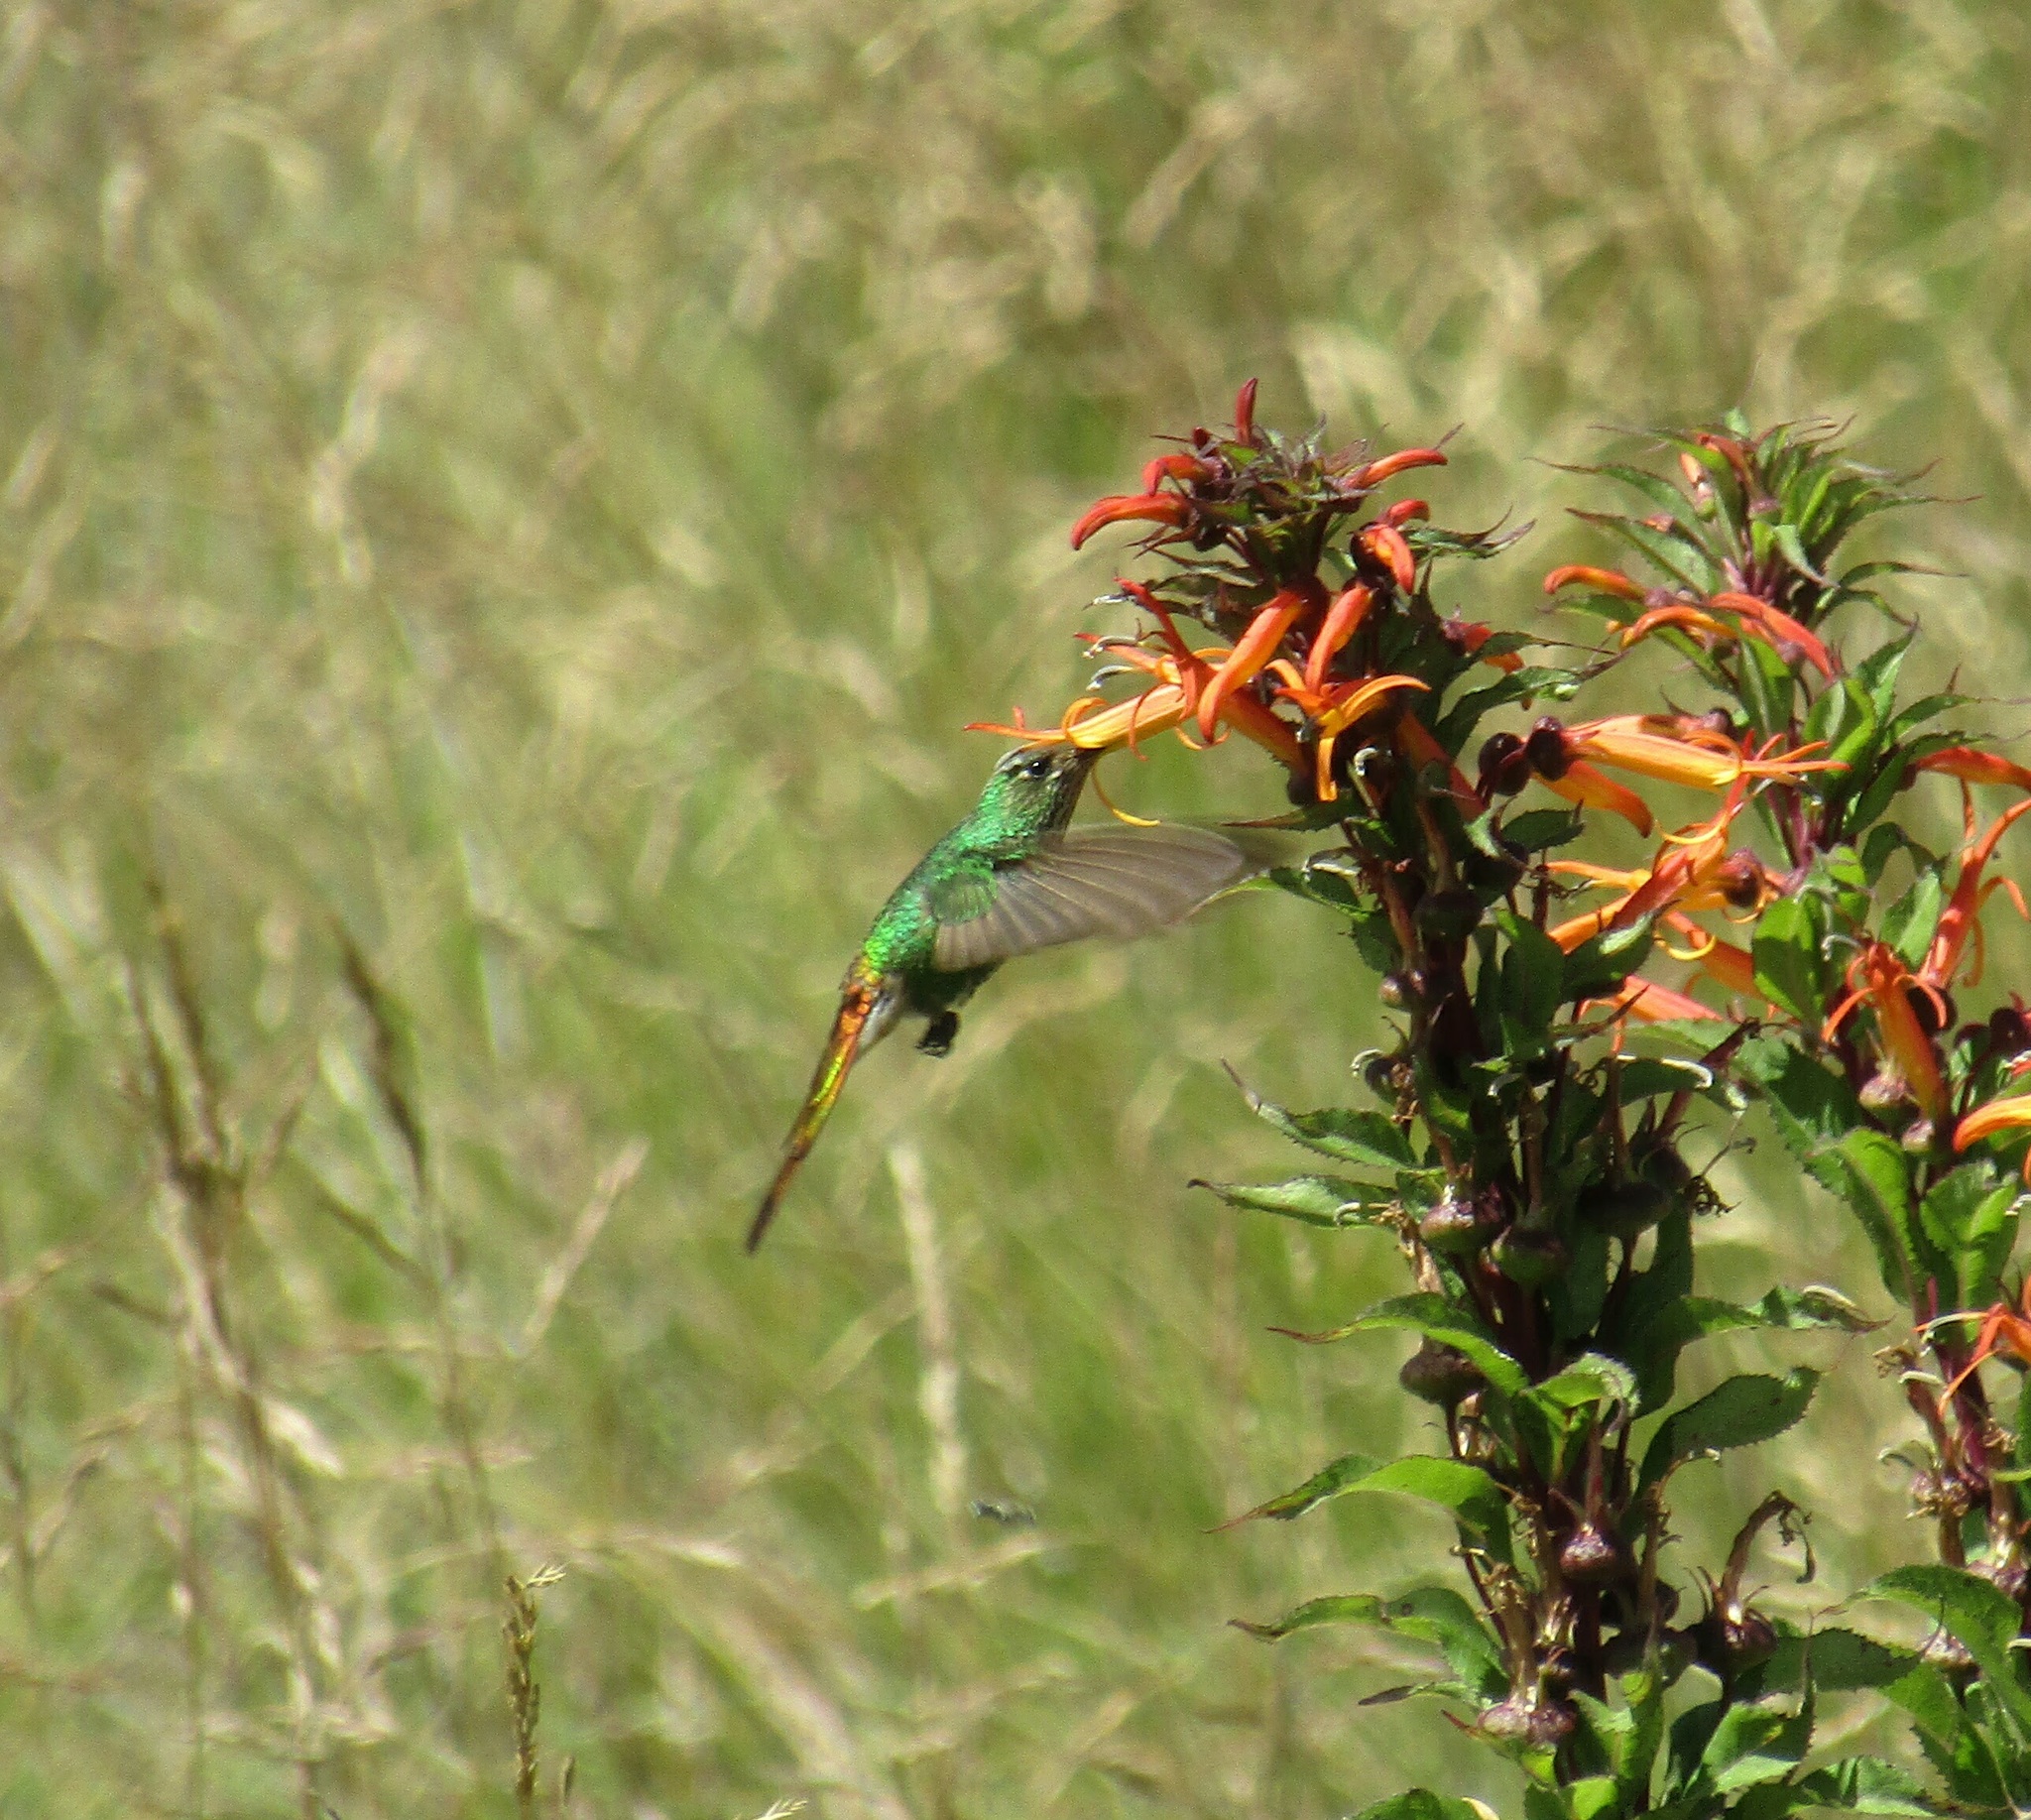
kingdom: Animalia
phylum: Chordata
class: Aves
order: Apodiformes
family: Trochilidae
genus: Sappho
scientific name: Sappho sparganurus
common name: Red-tailed comet
